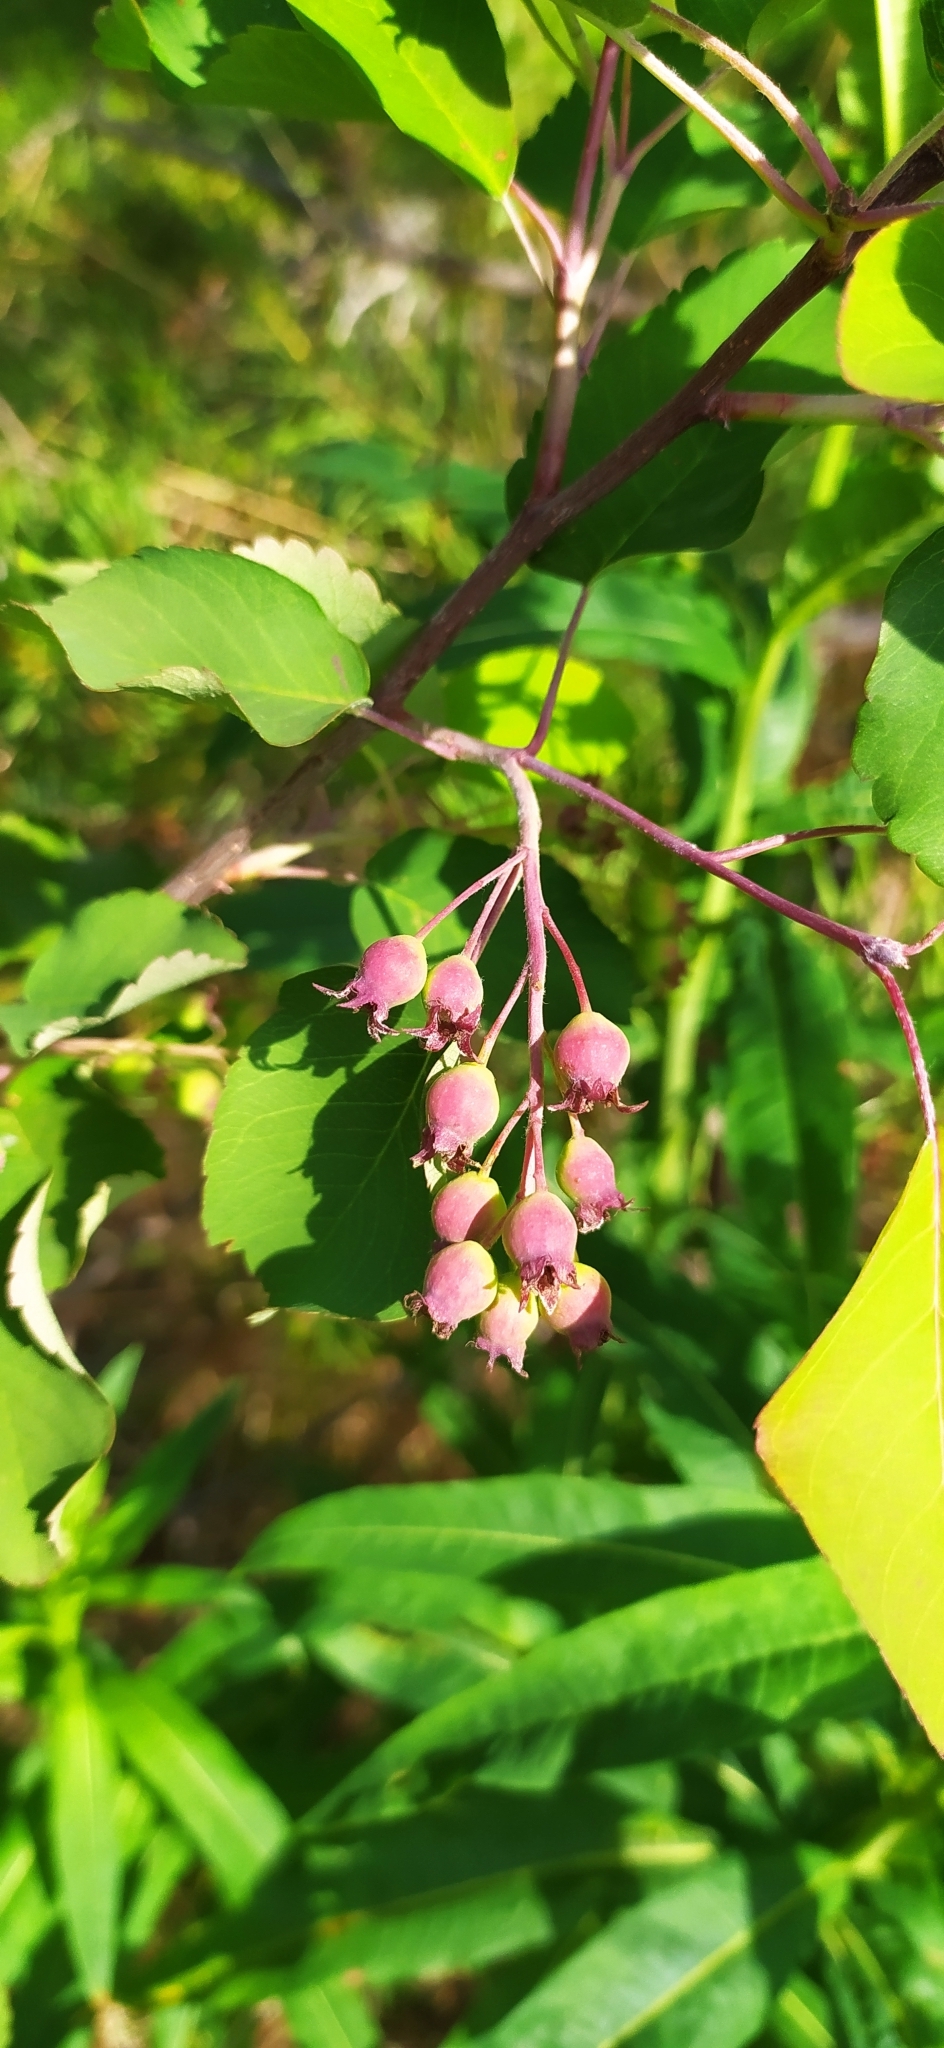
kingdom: Plantae
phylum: Tracheophyta
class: Magnoliopsida
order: Rosales
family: Rosaceae
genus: Amelanchier
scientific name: Amelanchier alnifolia
